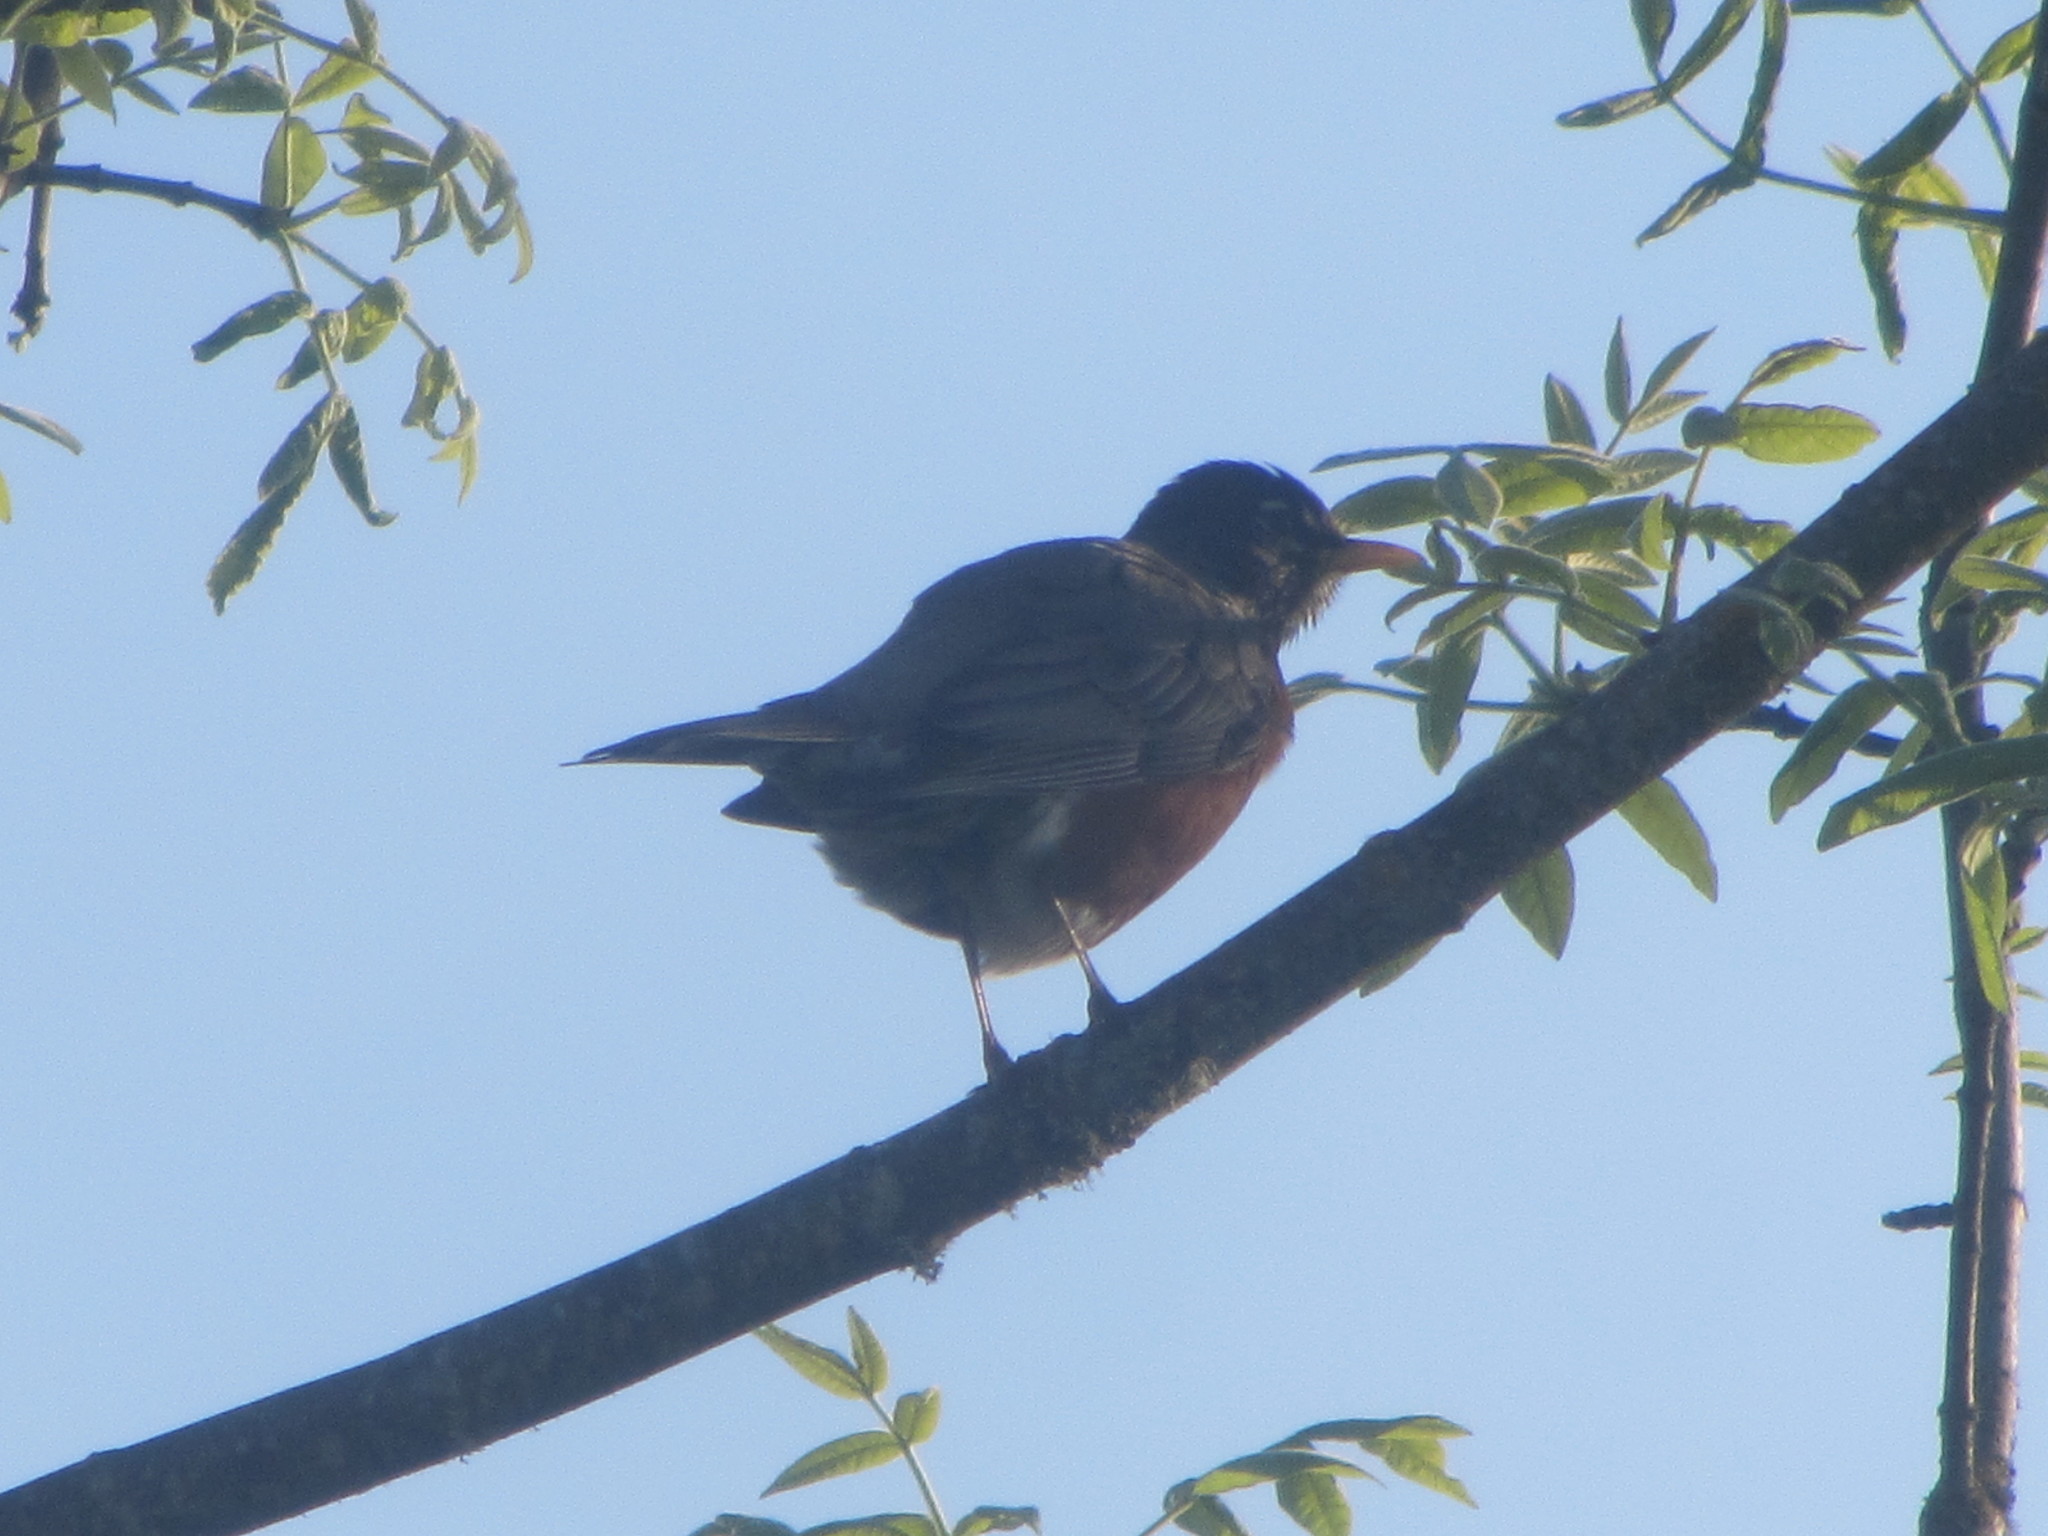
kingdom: Animalia
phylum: Chordata
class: Aves
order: Passeriformes
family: Turdidae
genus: Turdus
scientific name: Turdus migratorius
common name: American robin
